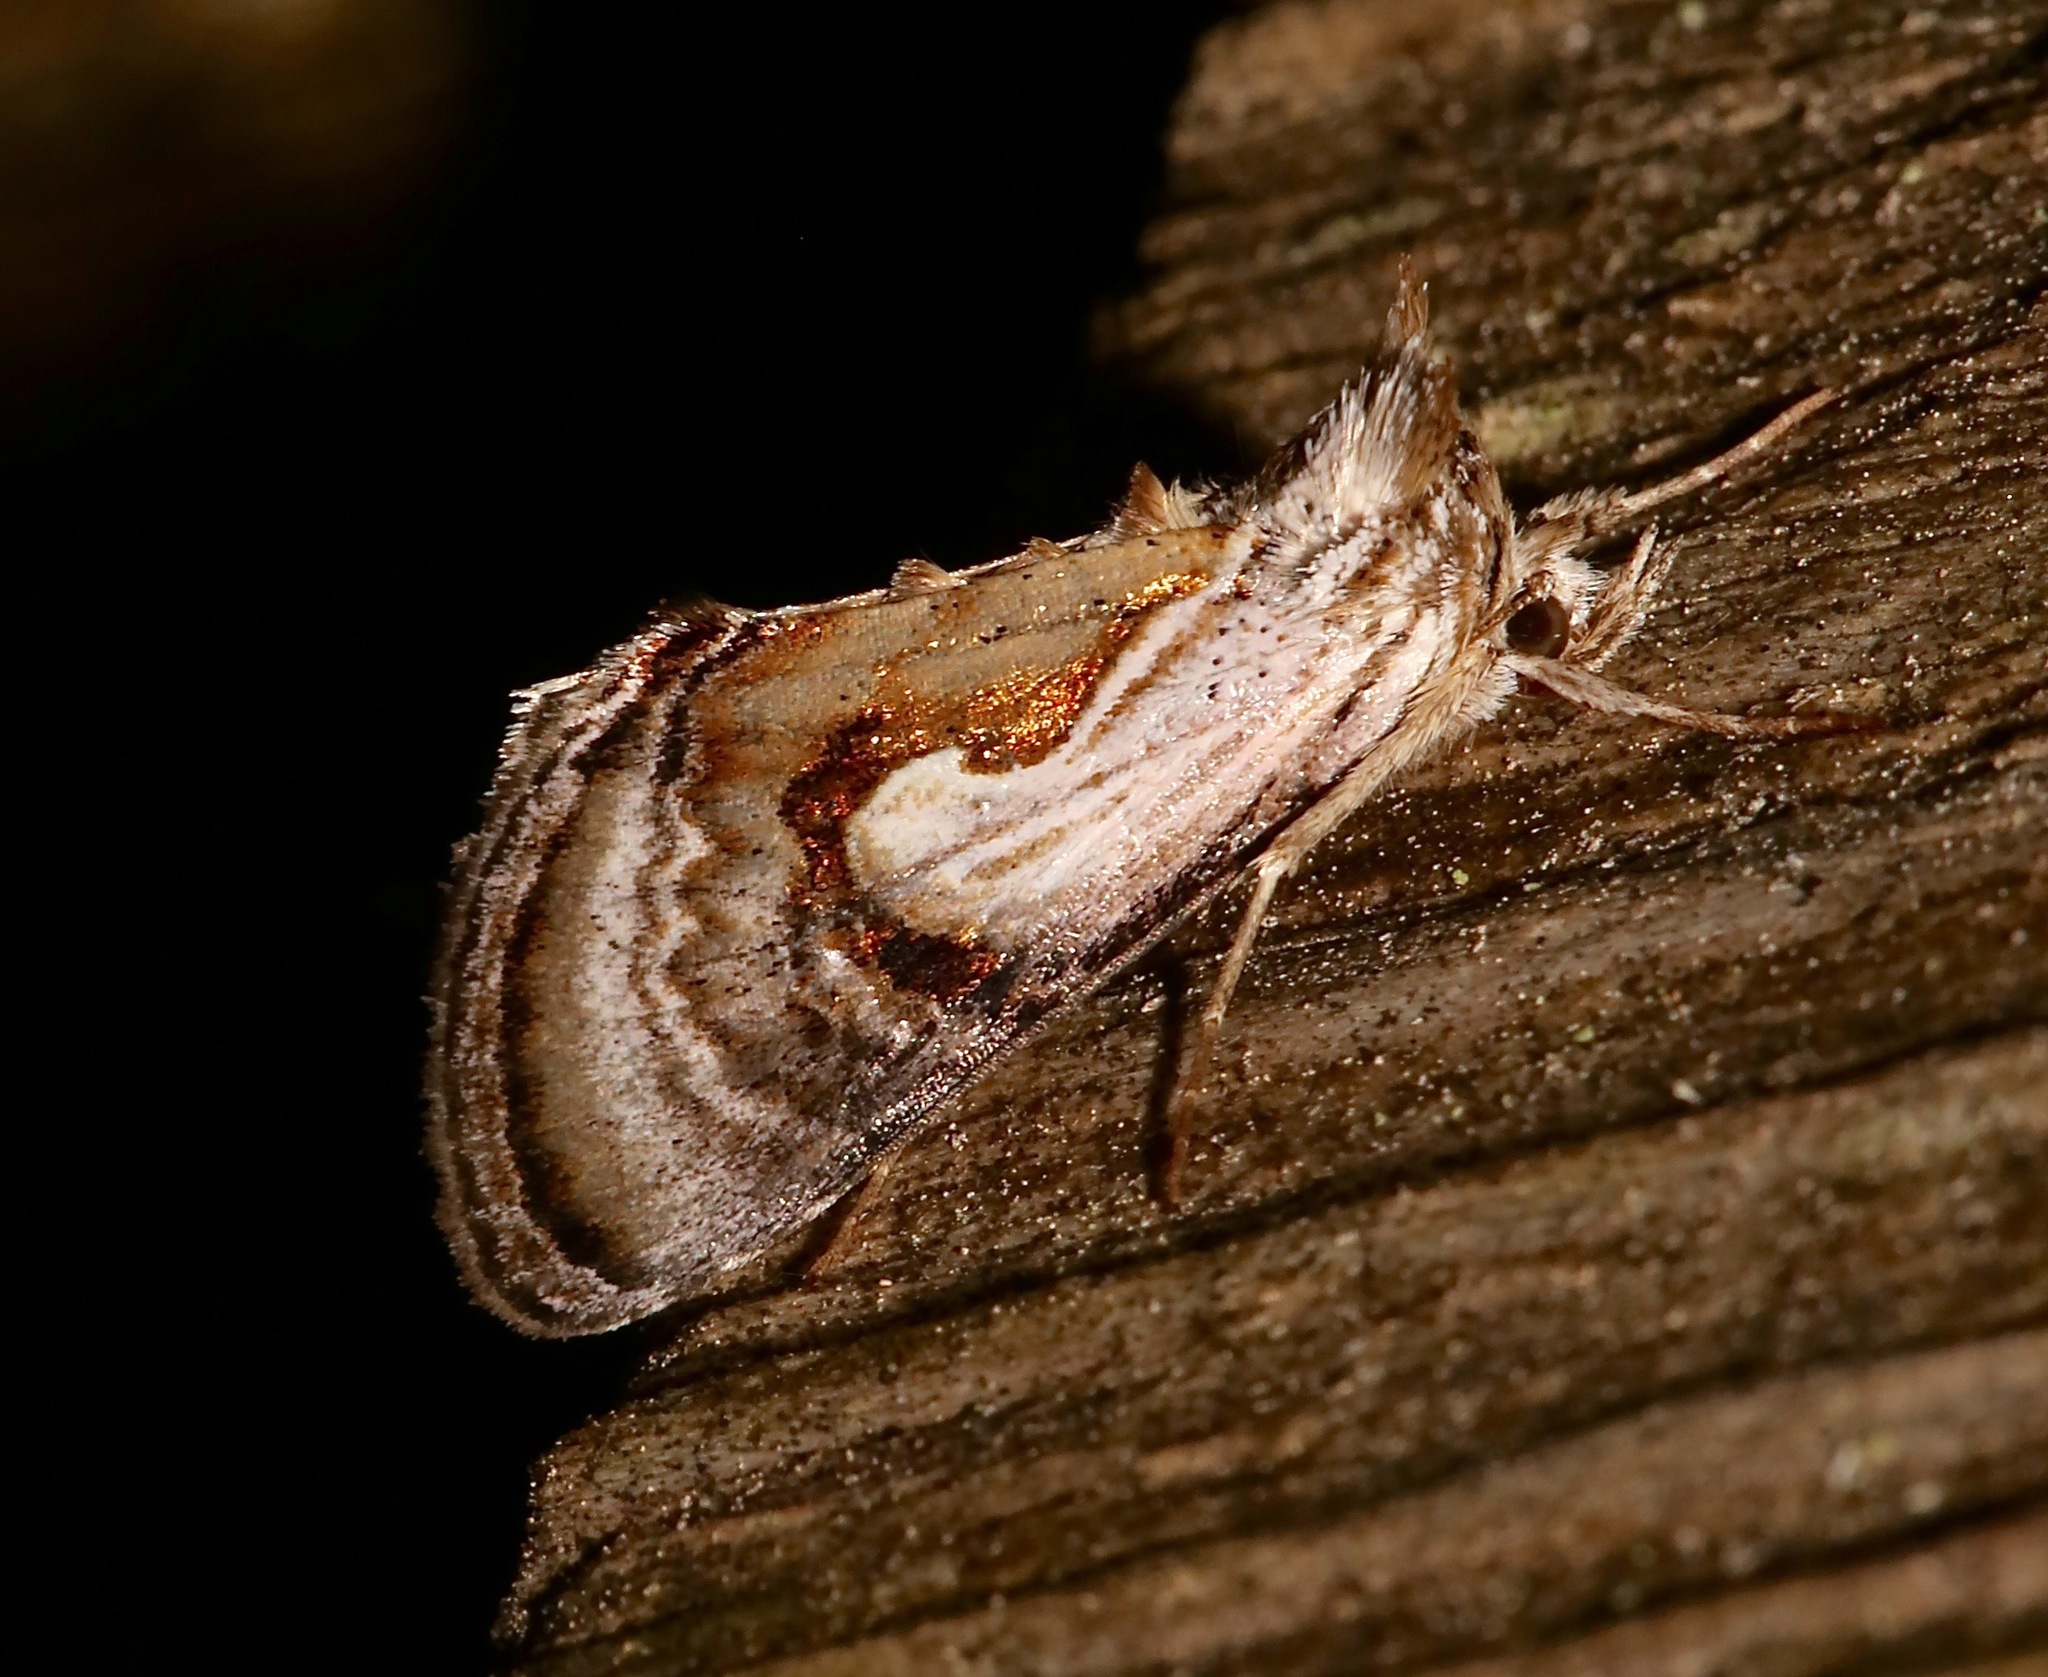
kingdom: Animalia
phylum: Arthropoda
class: Insecta
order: Lepidoptera
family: Noctuidae
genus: Chrysanympha
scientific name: Chrysanympha formosa
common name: Formosa looper moth
